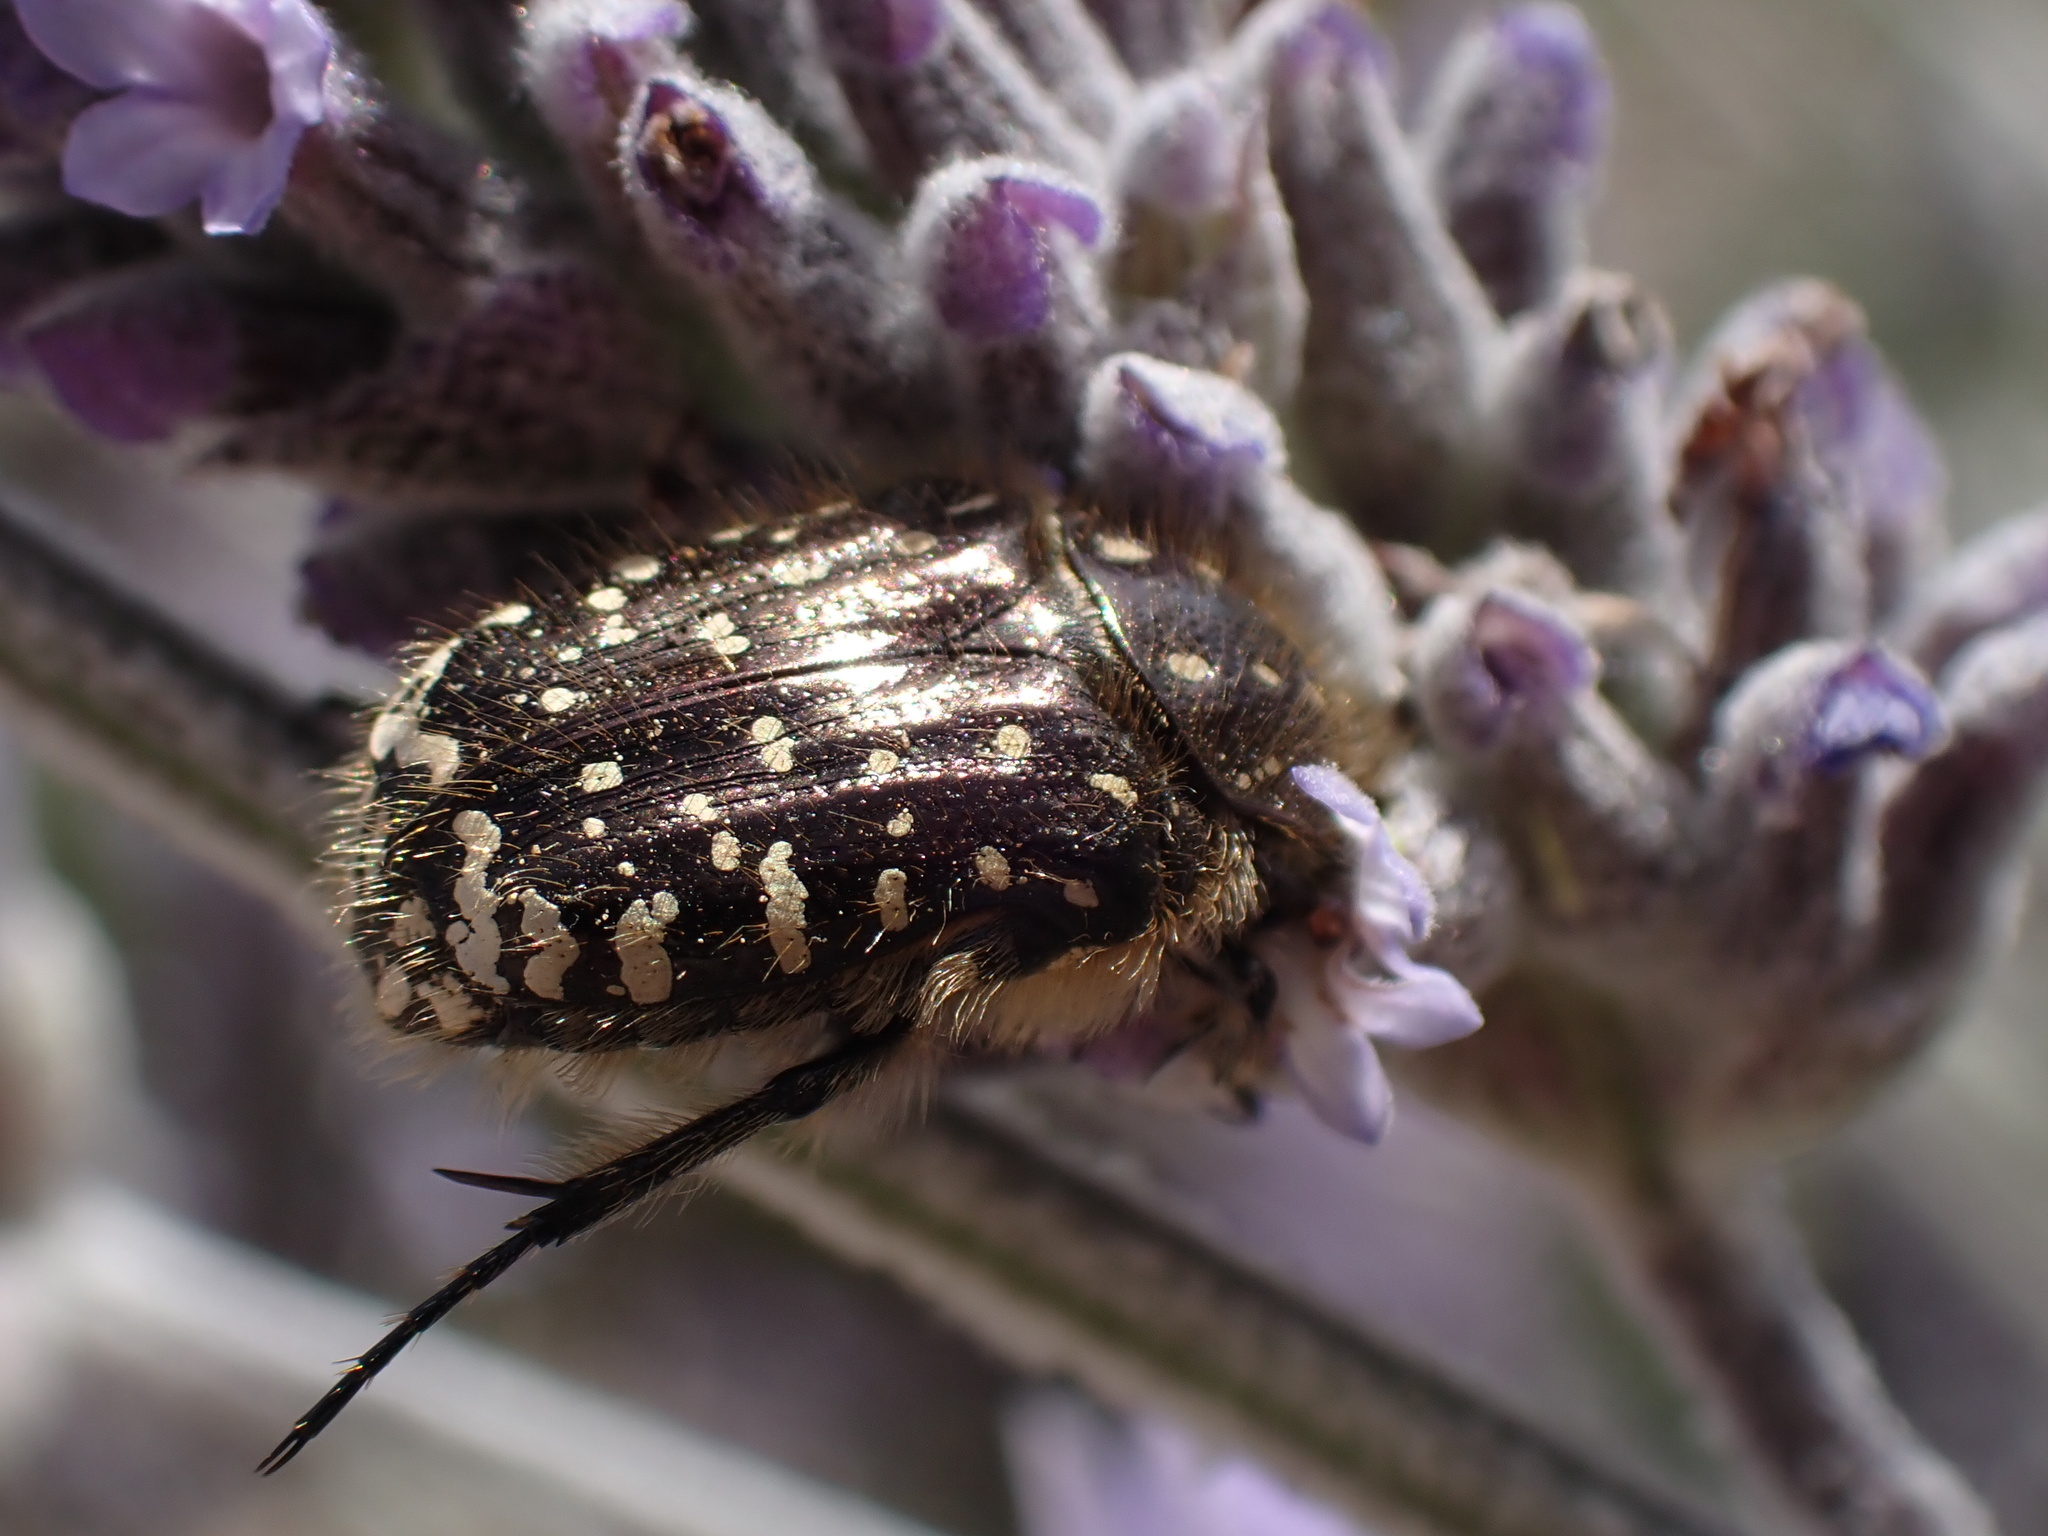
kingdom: Animalia
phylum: Arthropoda
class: Insecta
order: Coleoptera
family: Scarabaeidae
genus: Oxythyrea
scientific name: Oxythyrea funesta
